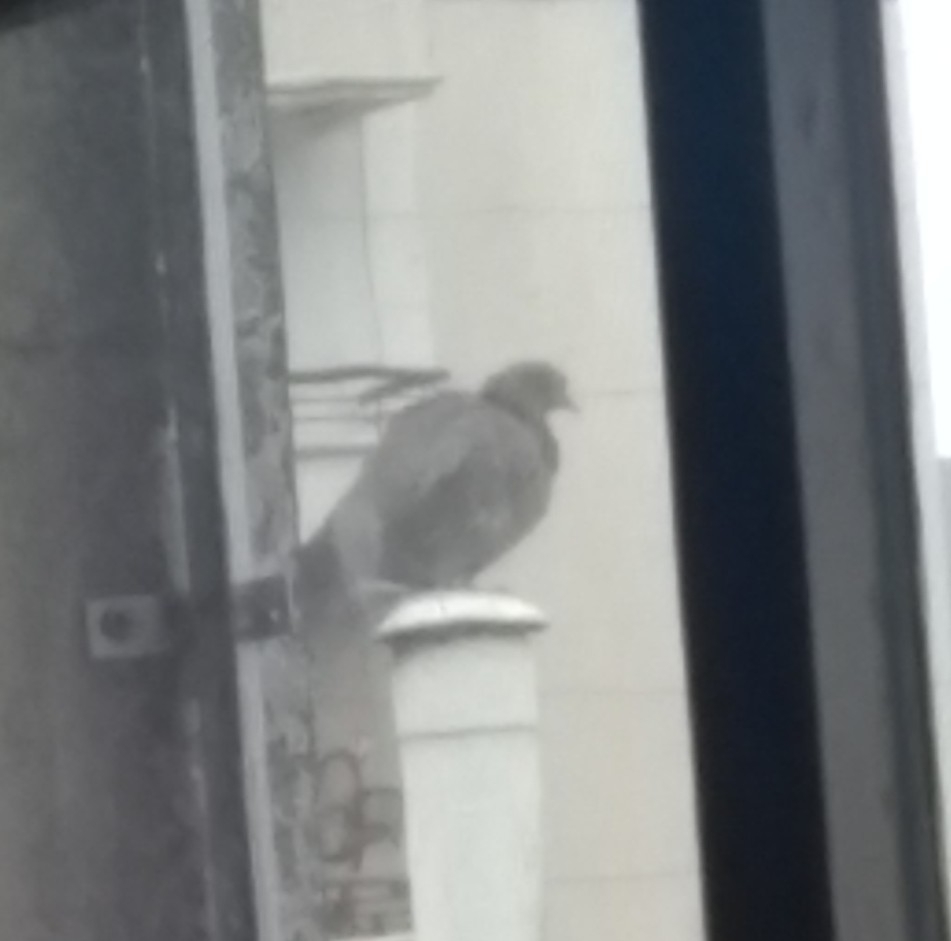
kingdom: Animalia
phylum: Chordata
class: Aves
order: Columbiformes
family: Columbidae
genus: Patagioenas
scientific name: Patagioenas picazuro
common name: Picazuro pigeon
